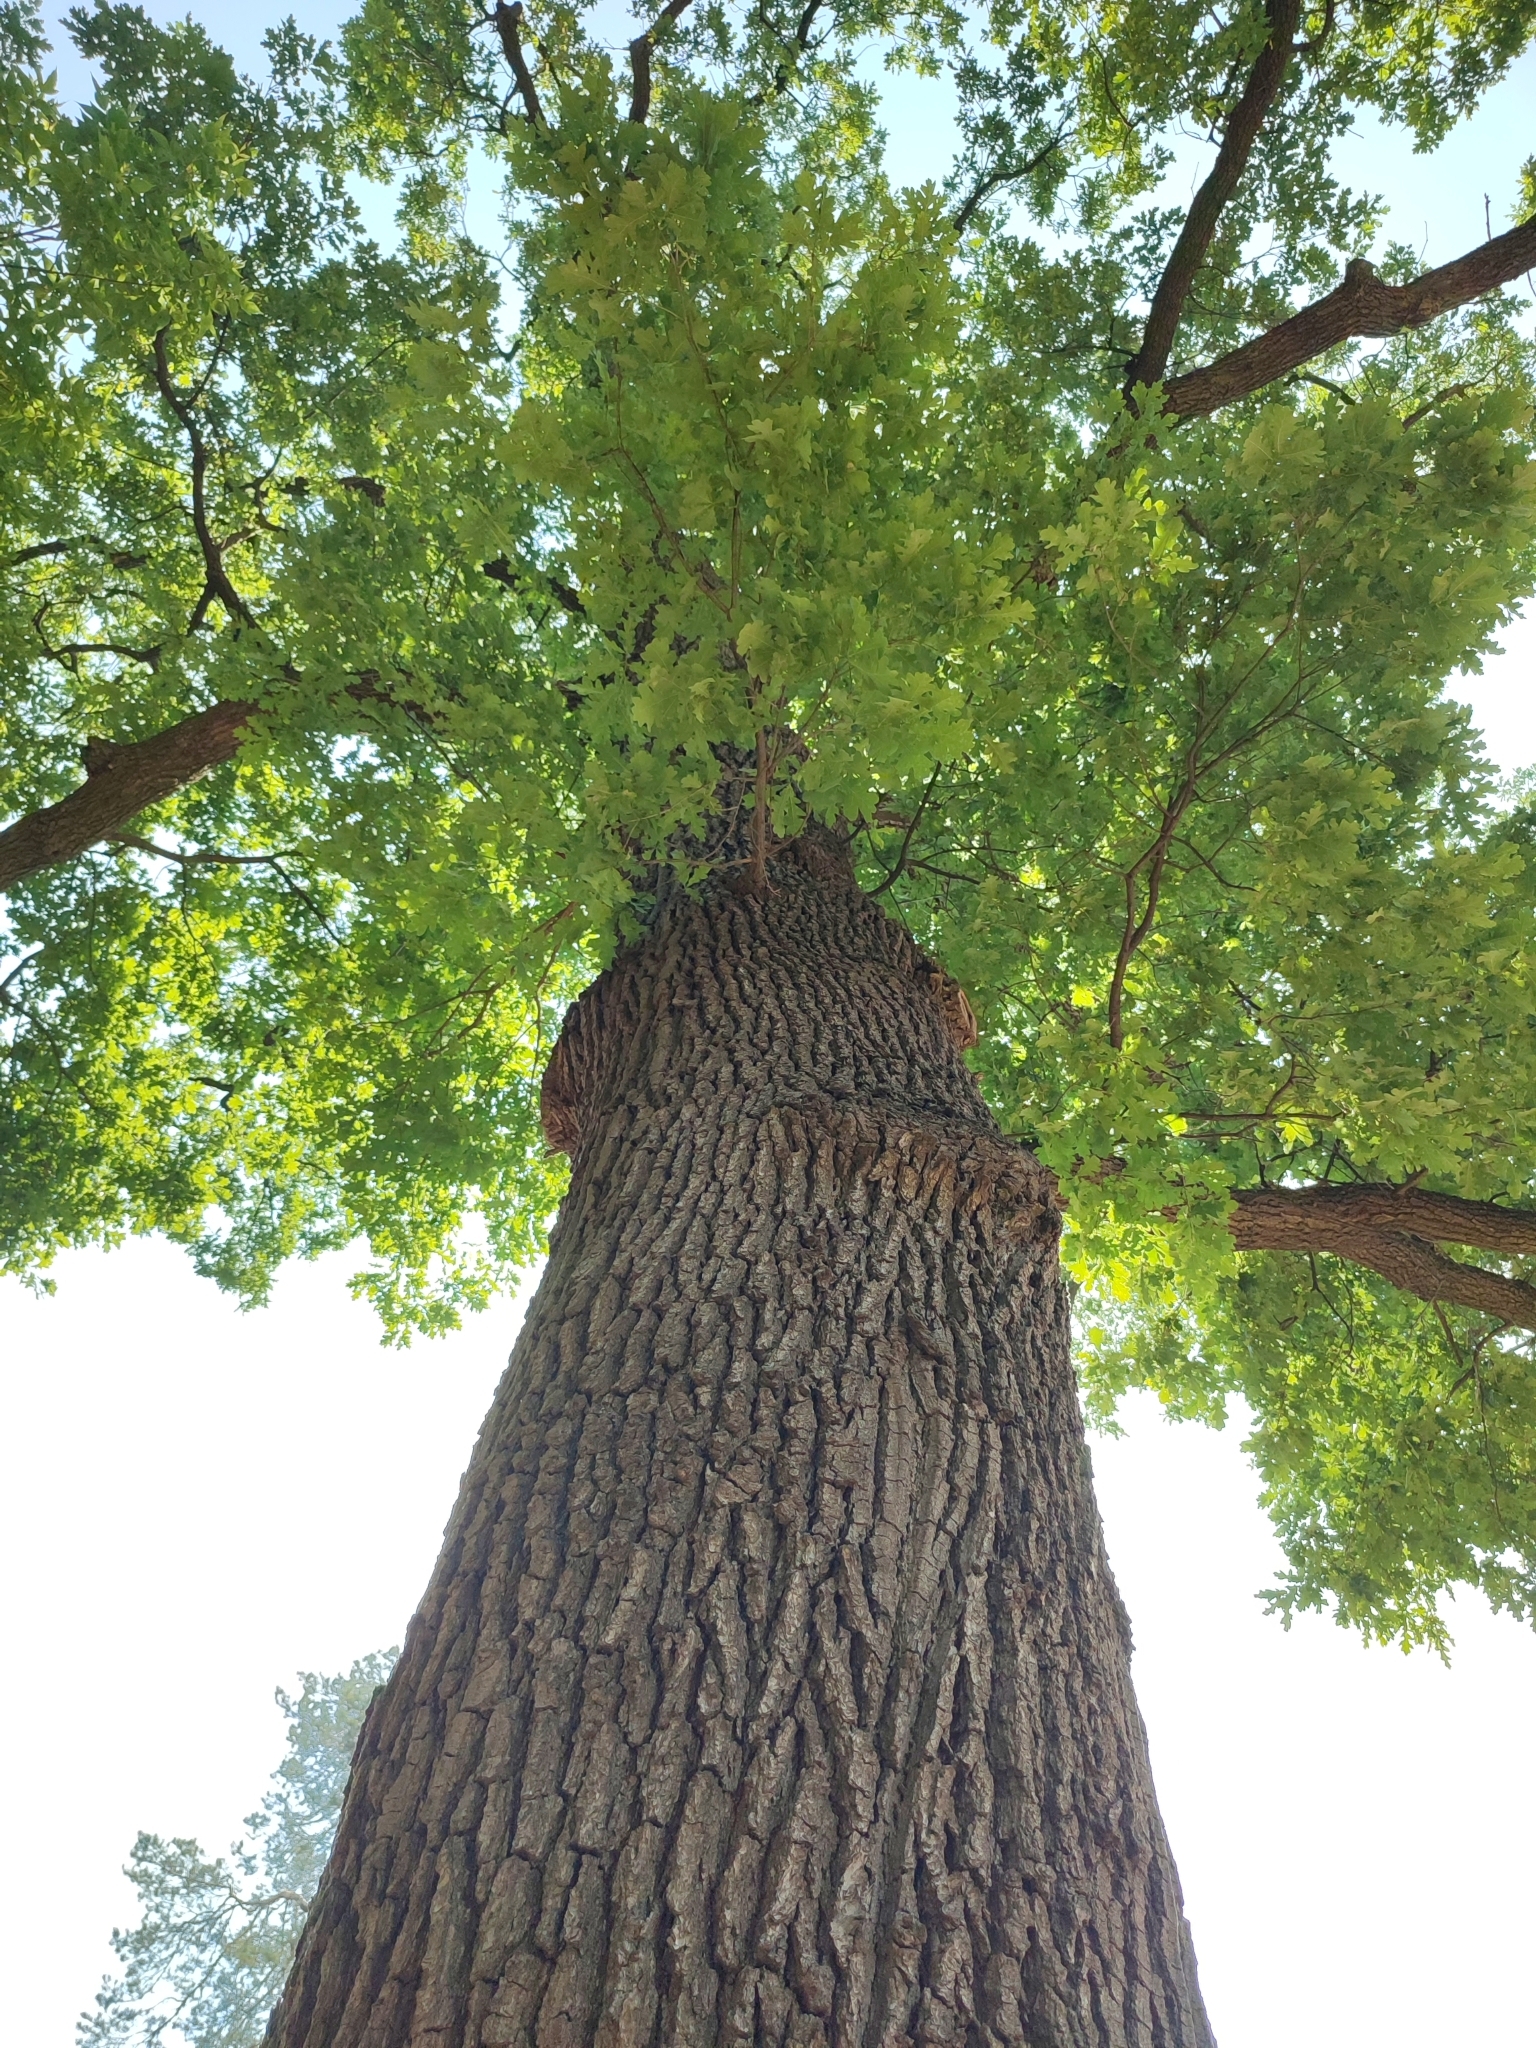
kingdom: Plantae
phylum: Tracheophyta
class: Magnoliopsida
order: Fagales
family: Fagaceae
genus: Quercus
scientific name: Quercus robur
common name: Pedunculate oak
